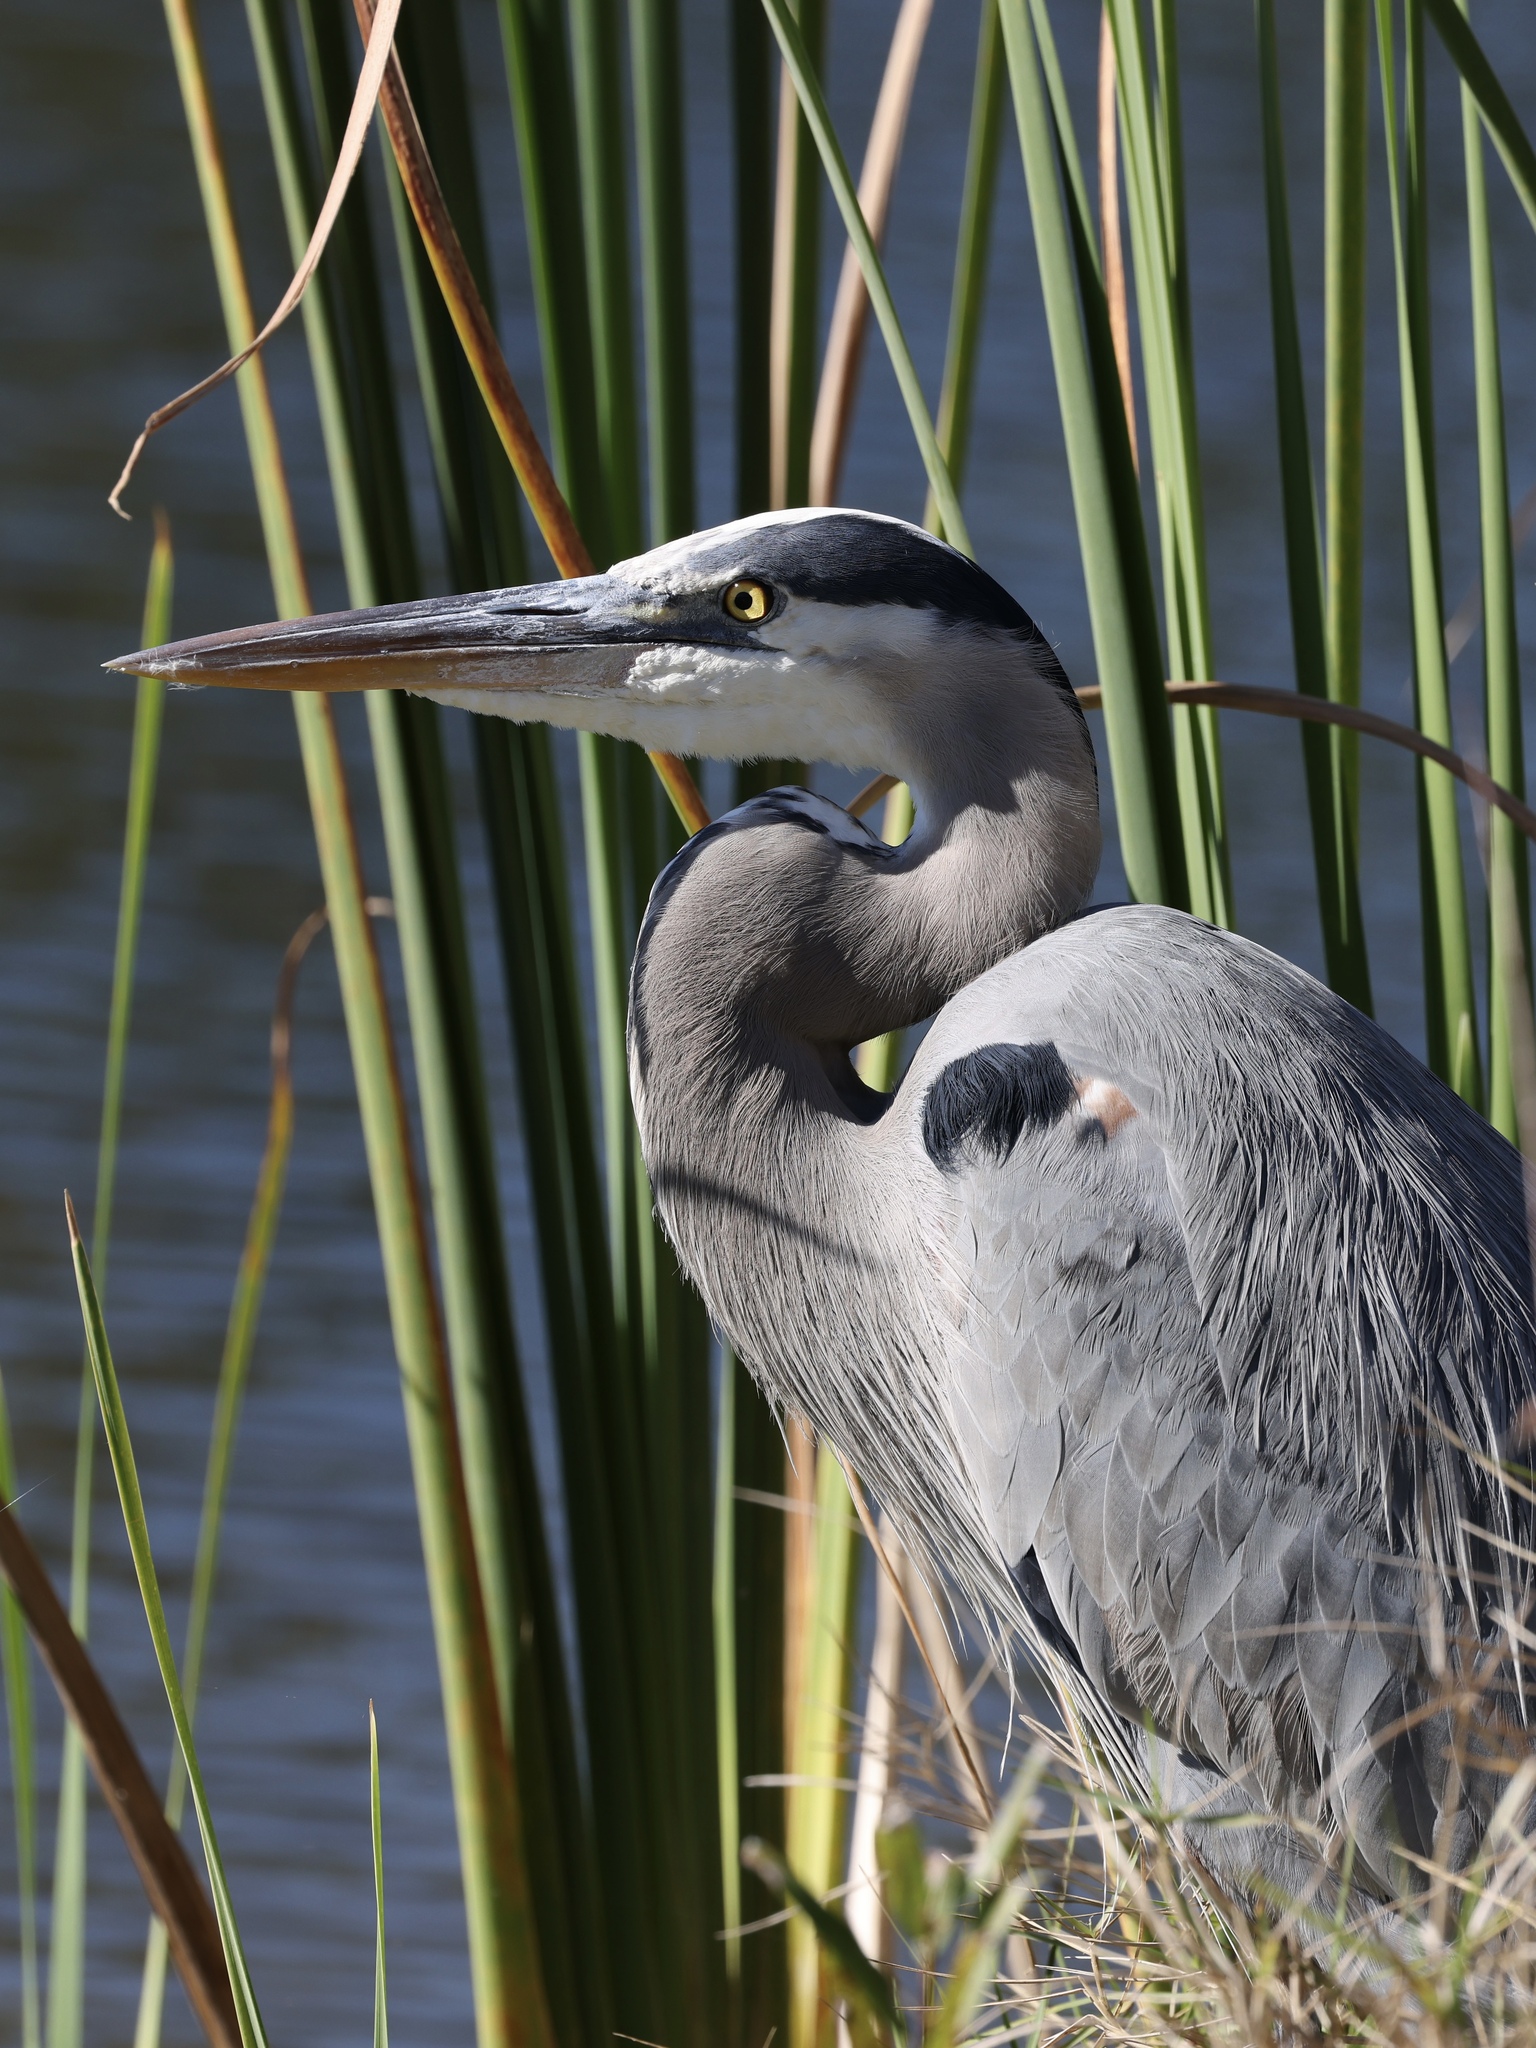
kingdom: Animalia
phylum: Chordata
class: Aves
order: Pelecaniformes
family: Ardeidae
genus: Ardea
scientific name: Ardea herodias
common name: Great blue heron
